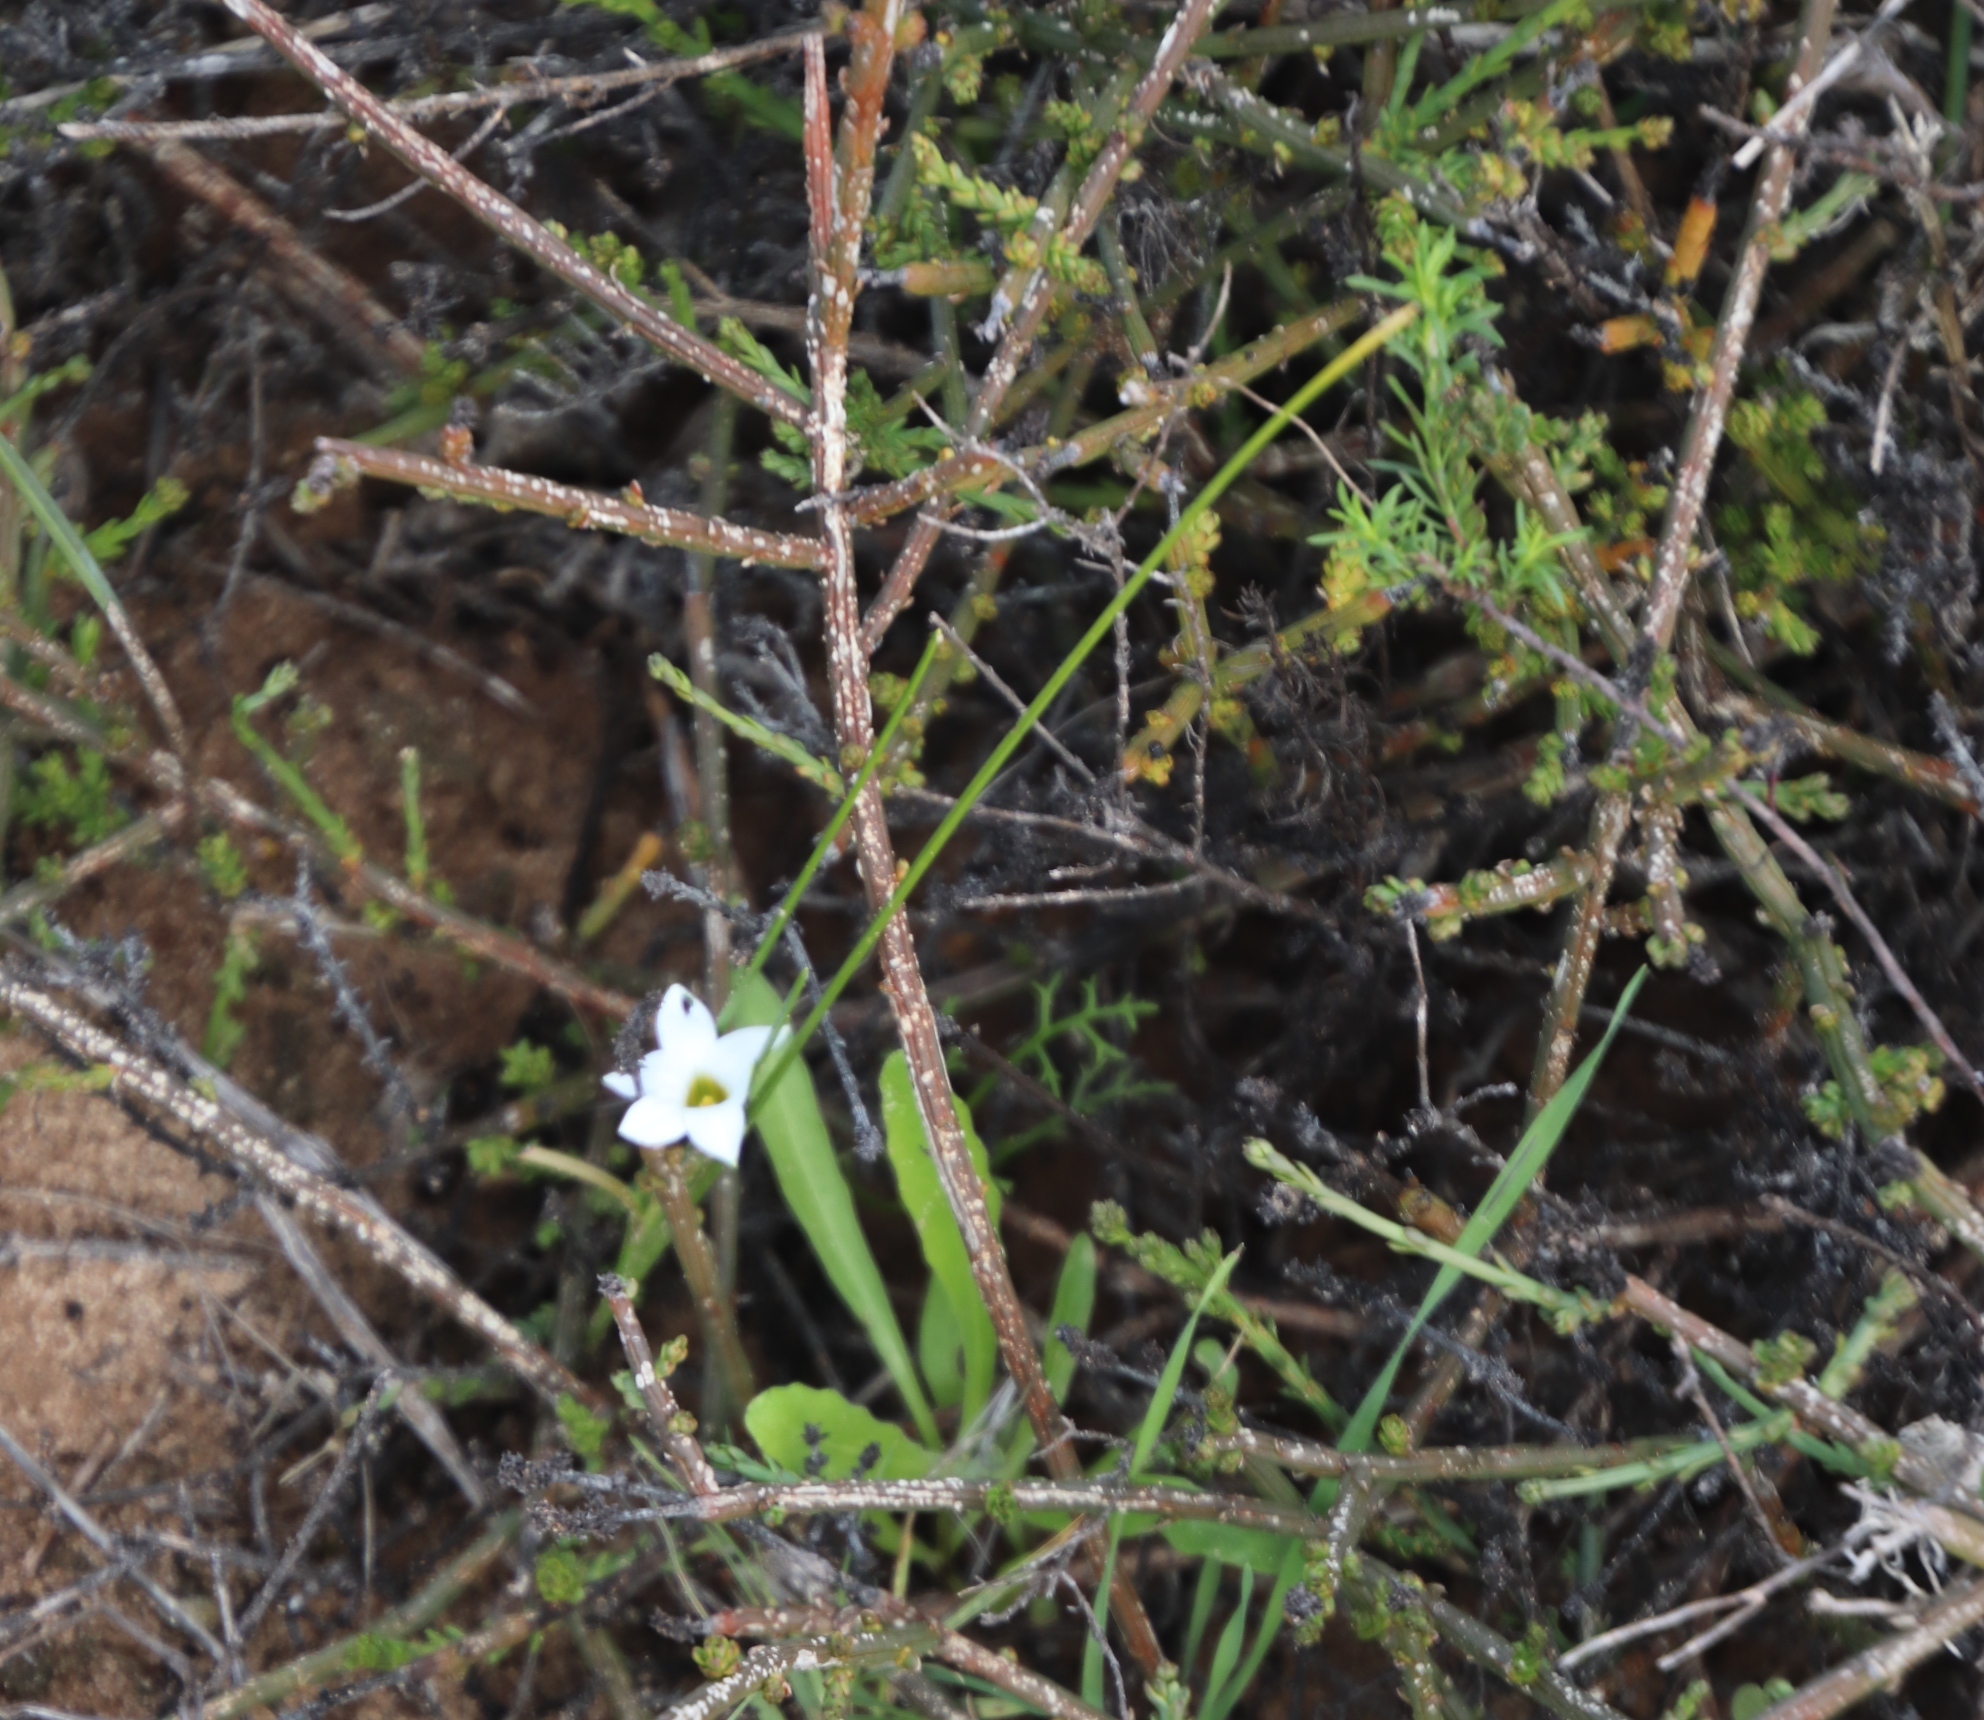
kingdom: Plantae
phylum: Tracheophyta
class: Liliopsida
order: Asparagales
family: Iridaceae
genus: Romulea
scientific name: Romulea flava
